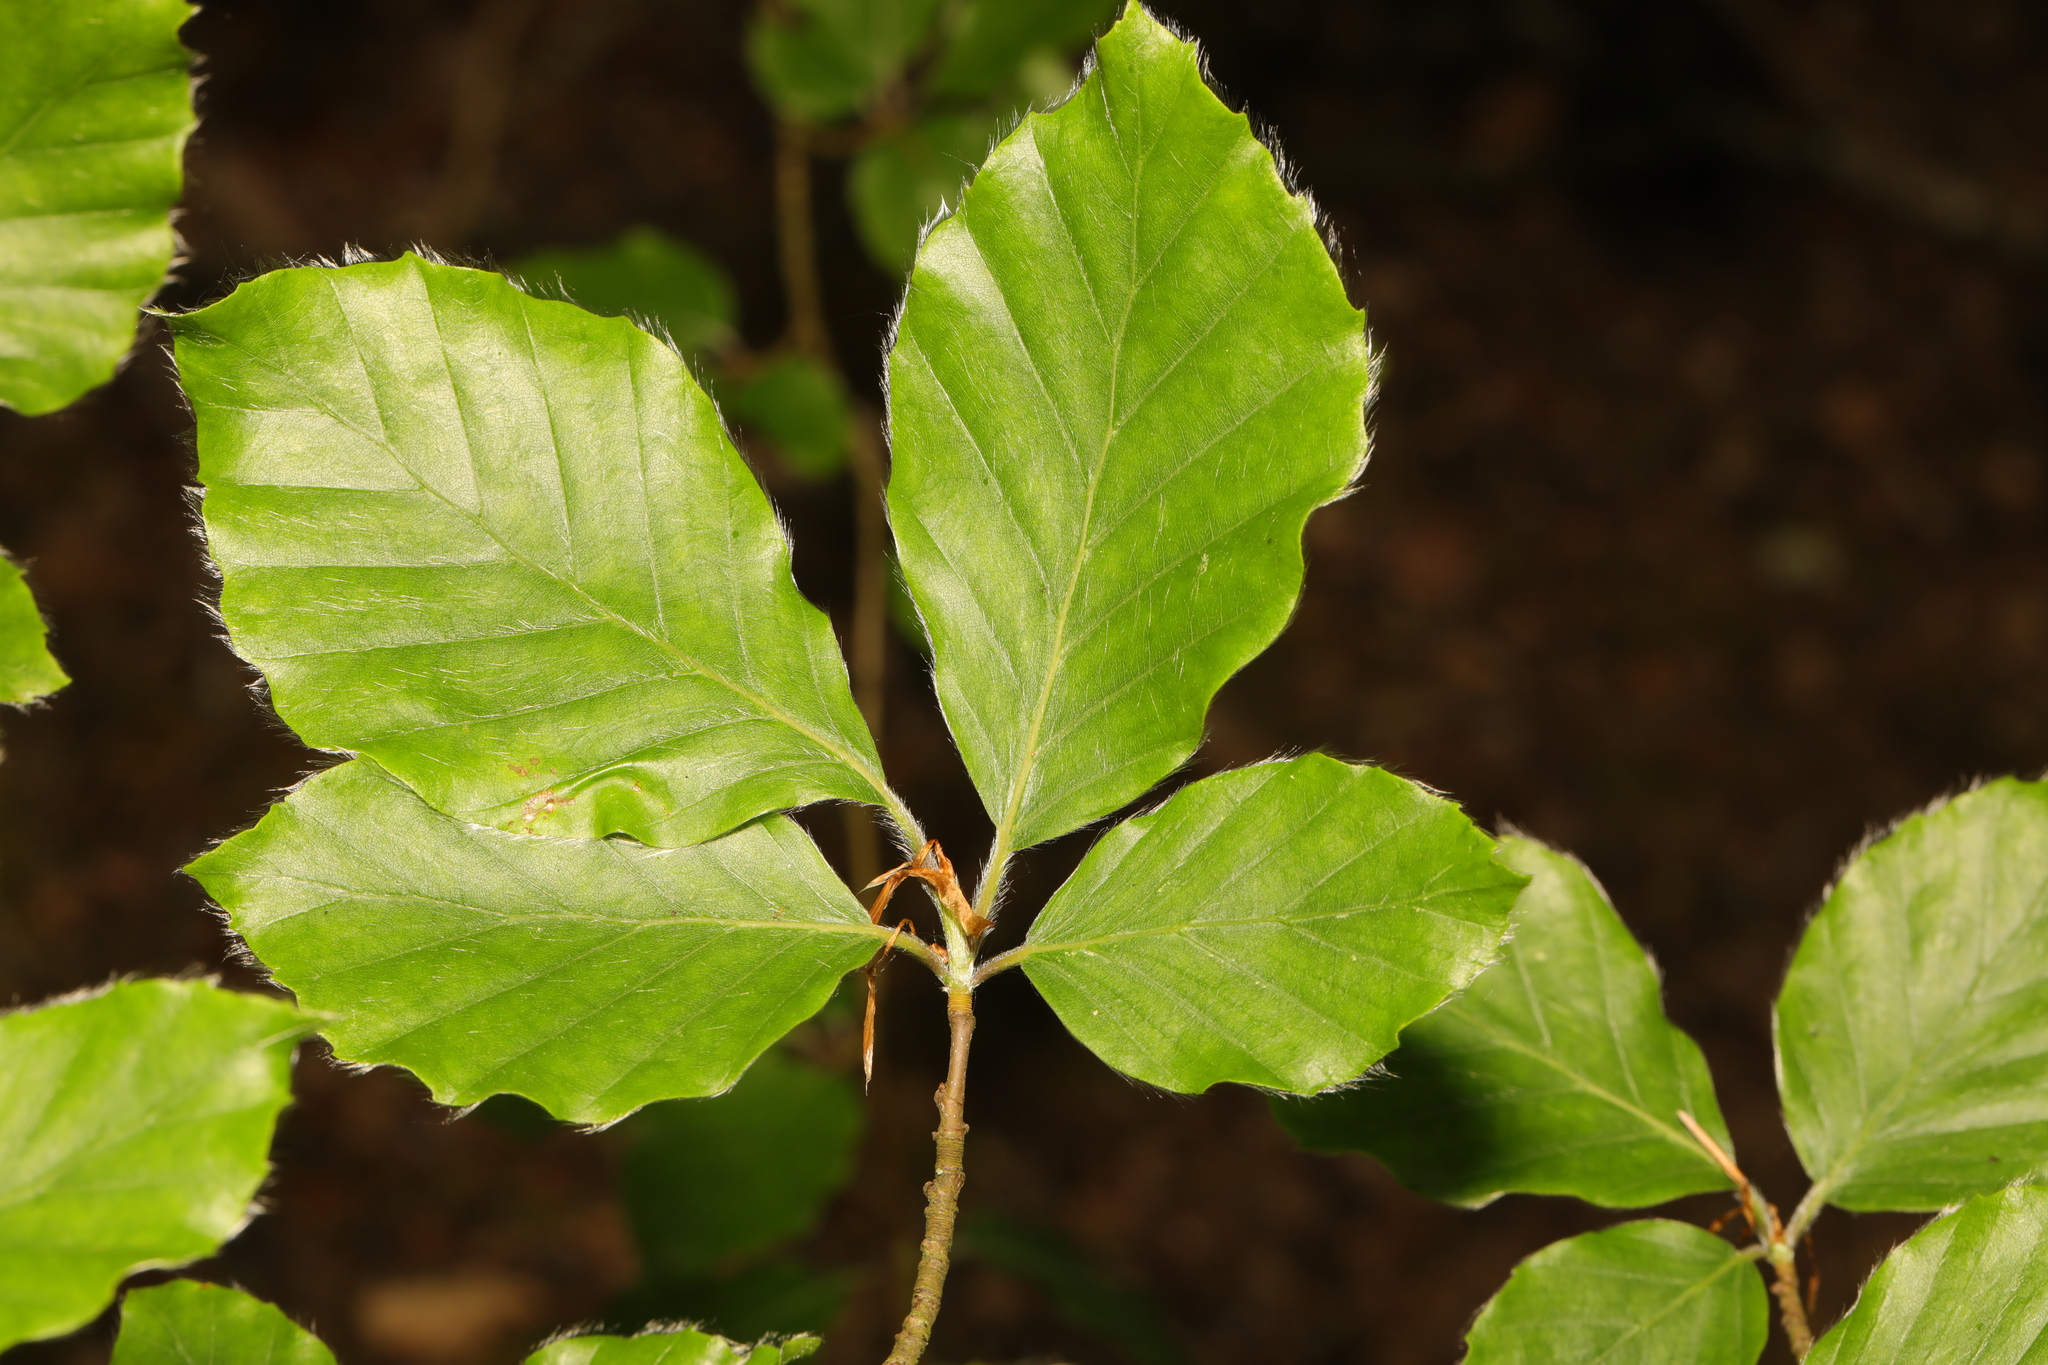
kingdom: Plantae
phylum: Tracheophyta
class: Magnoliopsida
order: Fagales
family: Fagaceae
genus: Fagus
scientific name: Fagus sylvatica
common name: Beech
